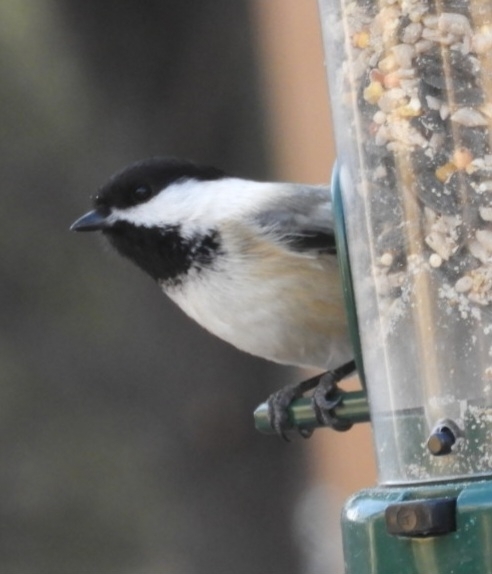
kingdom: Animalia
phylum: Chordata
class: Aves
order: Passeriformes
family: Paridae
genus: Poecile
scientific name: Poecile atricapillus
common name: Black-capped chickadee
